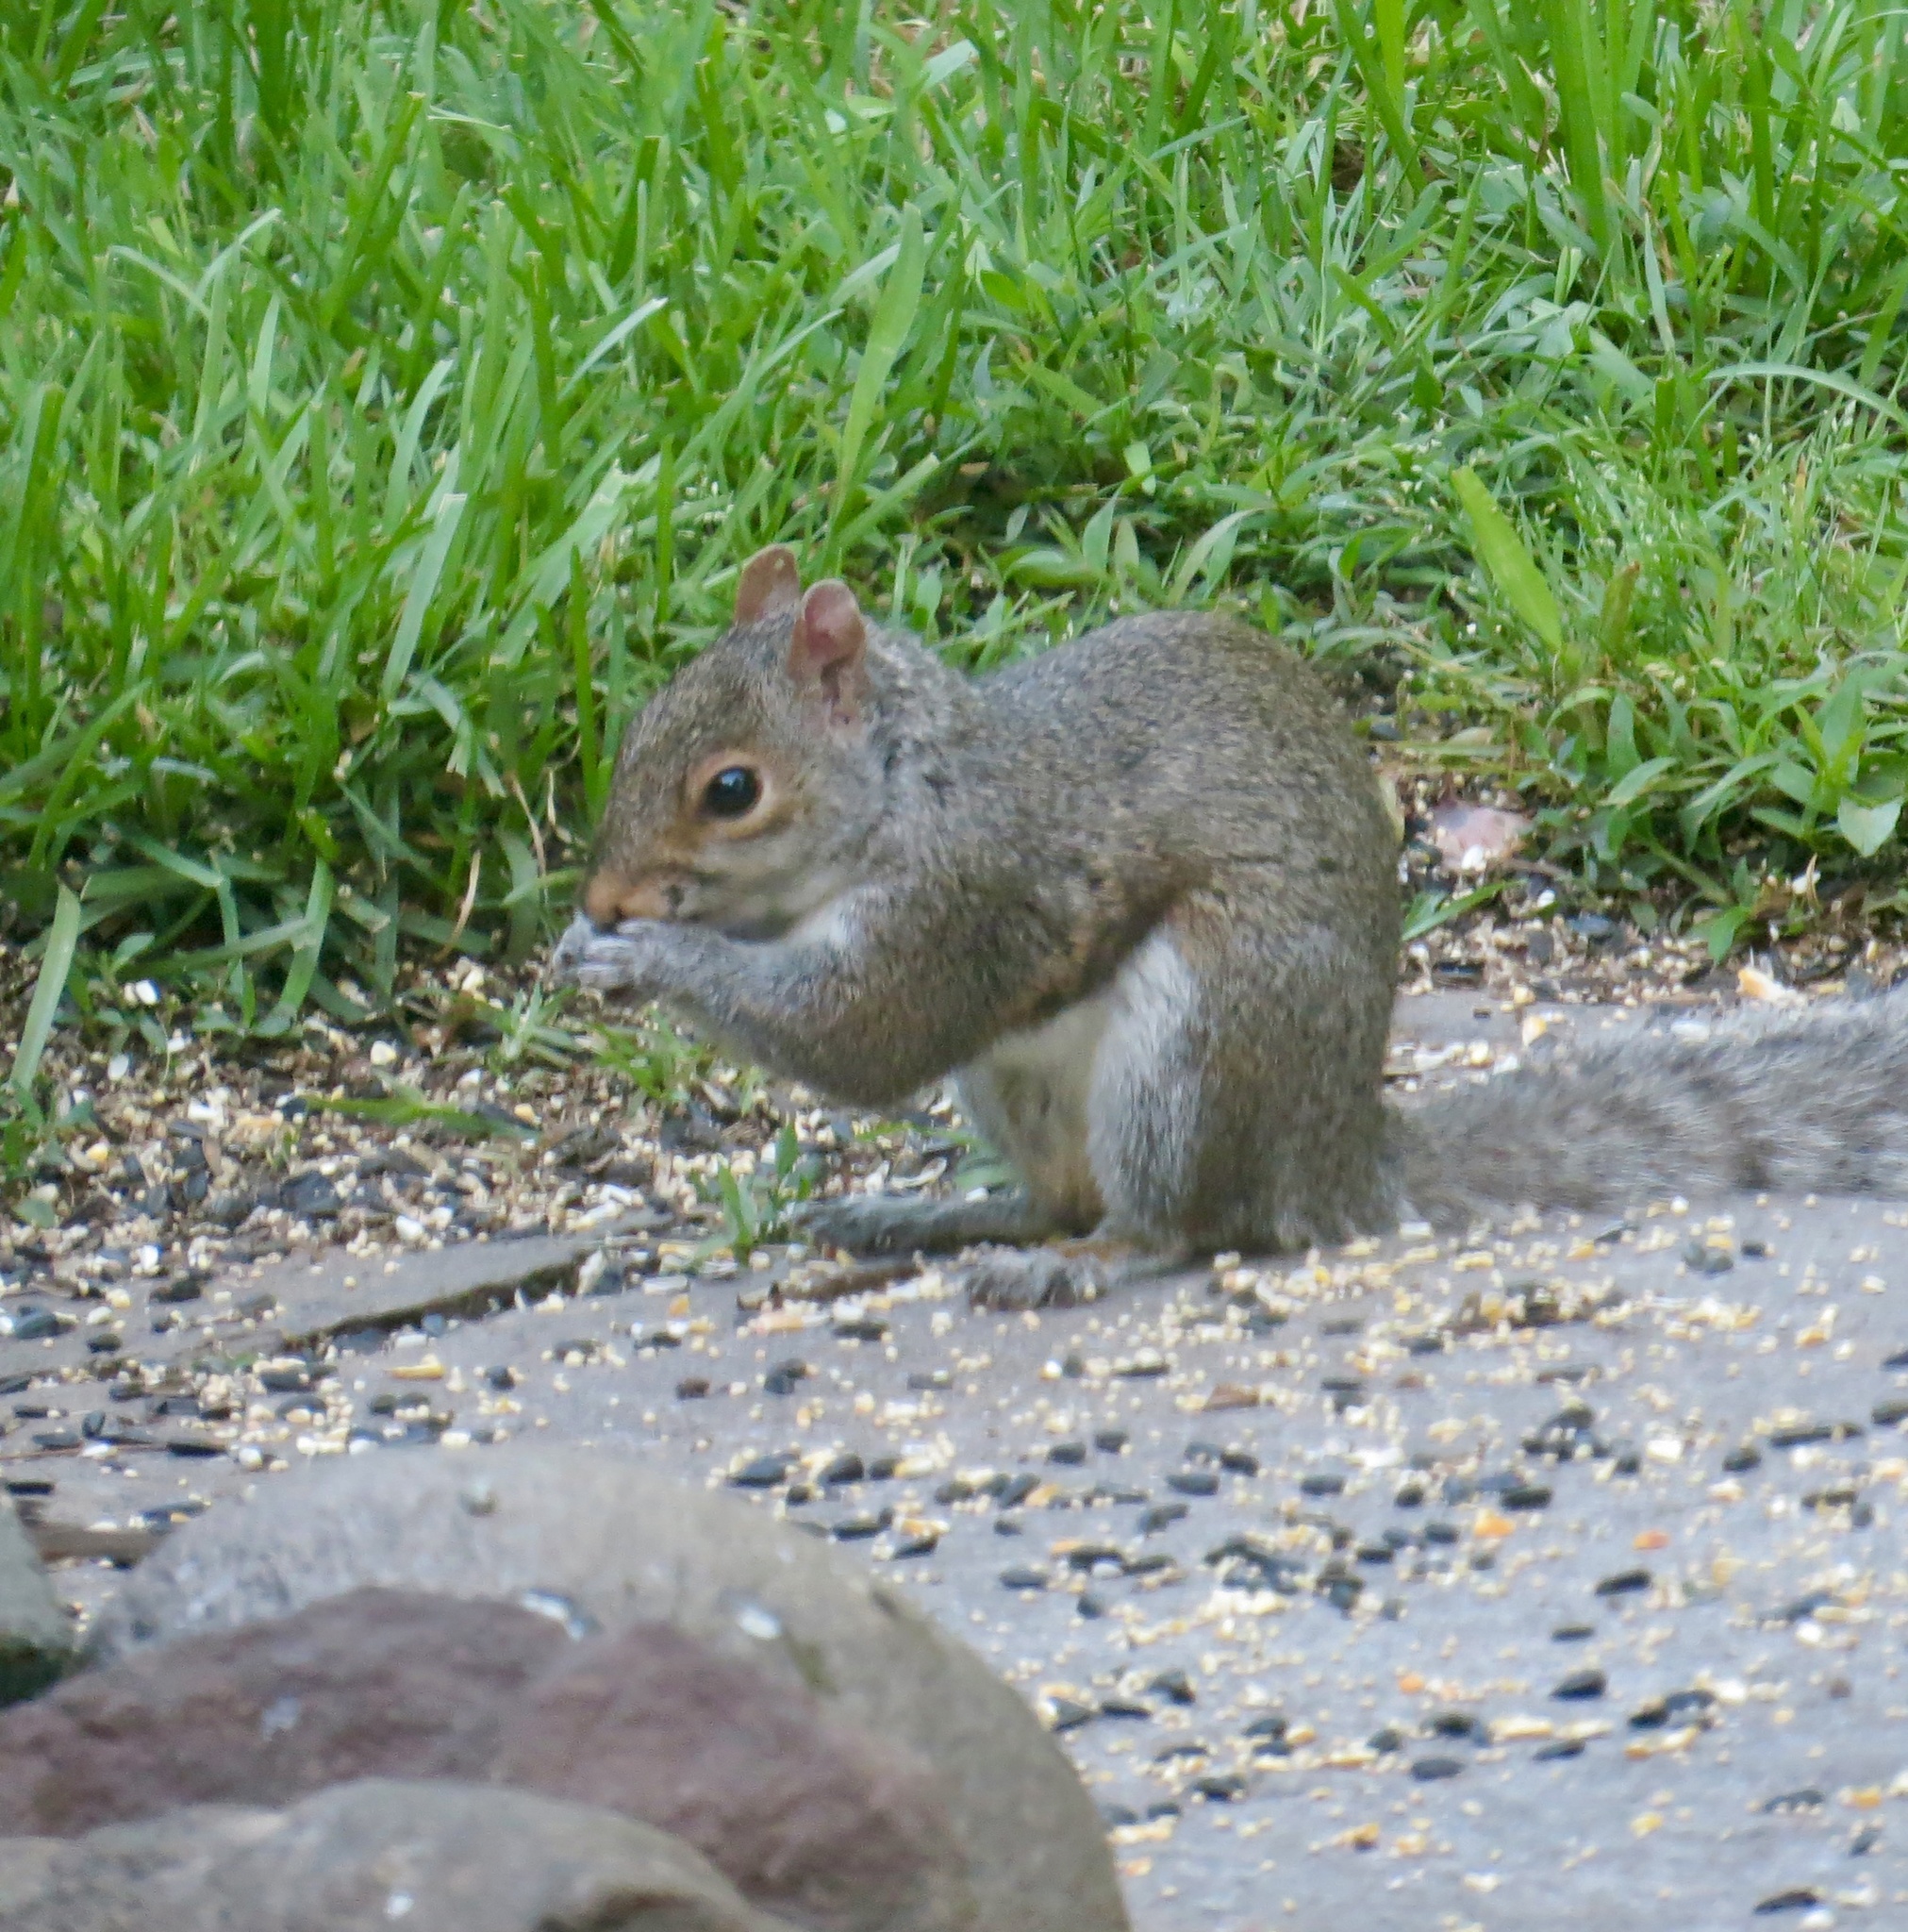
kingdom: Animalia
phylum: Chordata
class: Mammalia
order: Rodentia
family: Sciuridae
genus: Sciurus
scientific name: Sciurus carolinensis
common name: Eastern gray squirrel
